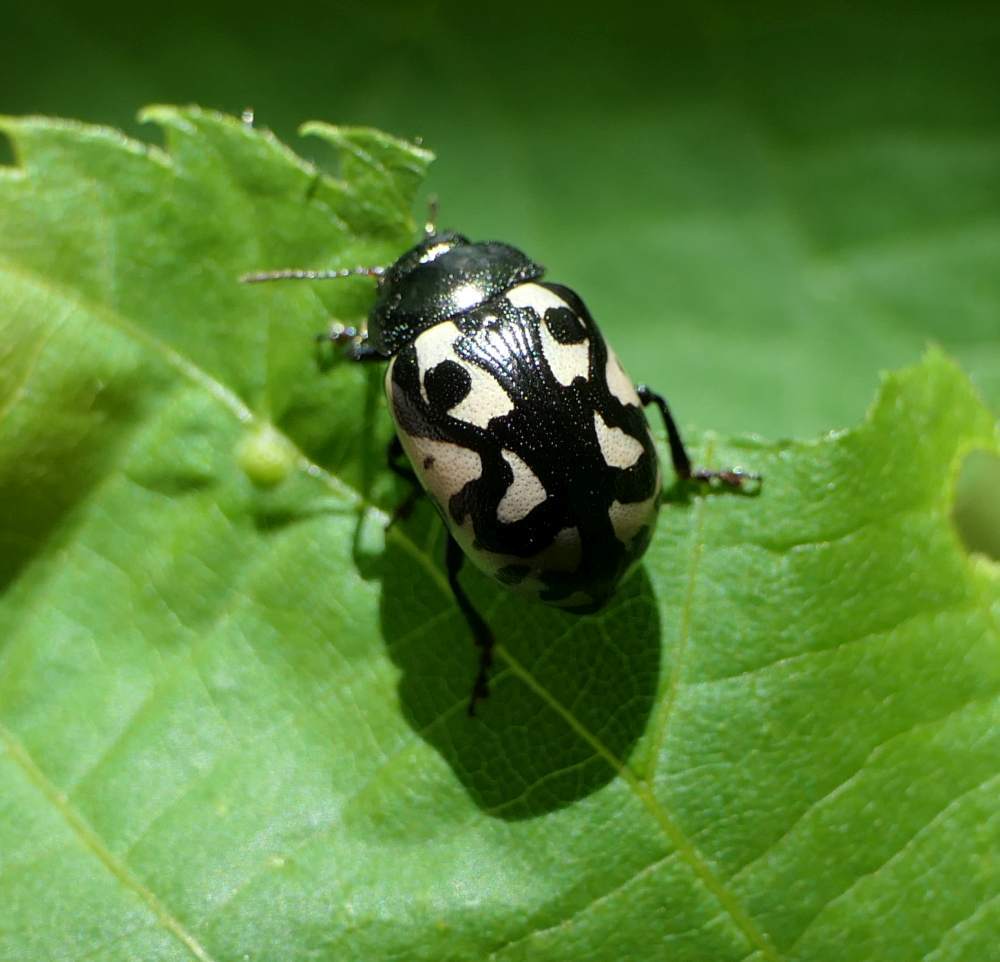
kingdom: Animalia
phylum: Arthropoda
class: Insecta
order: Coleoptera
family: Chrysomelidae
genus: Calligrapha
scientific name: Calligrapha pnirsa
